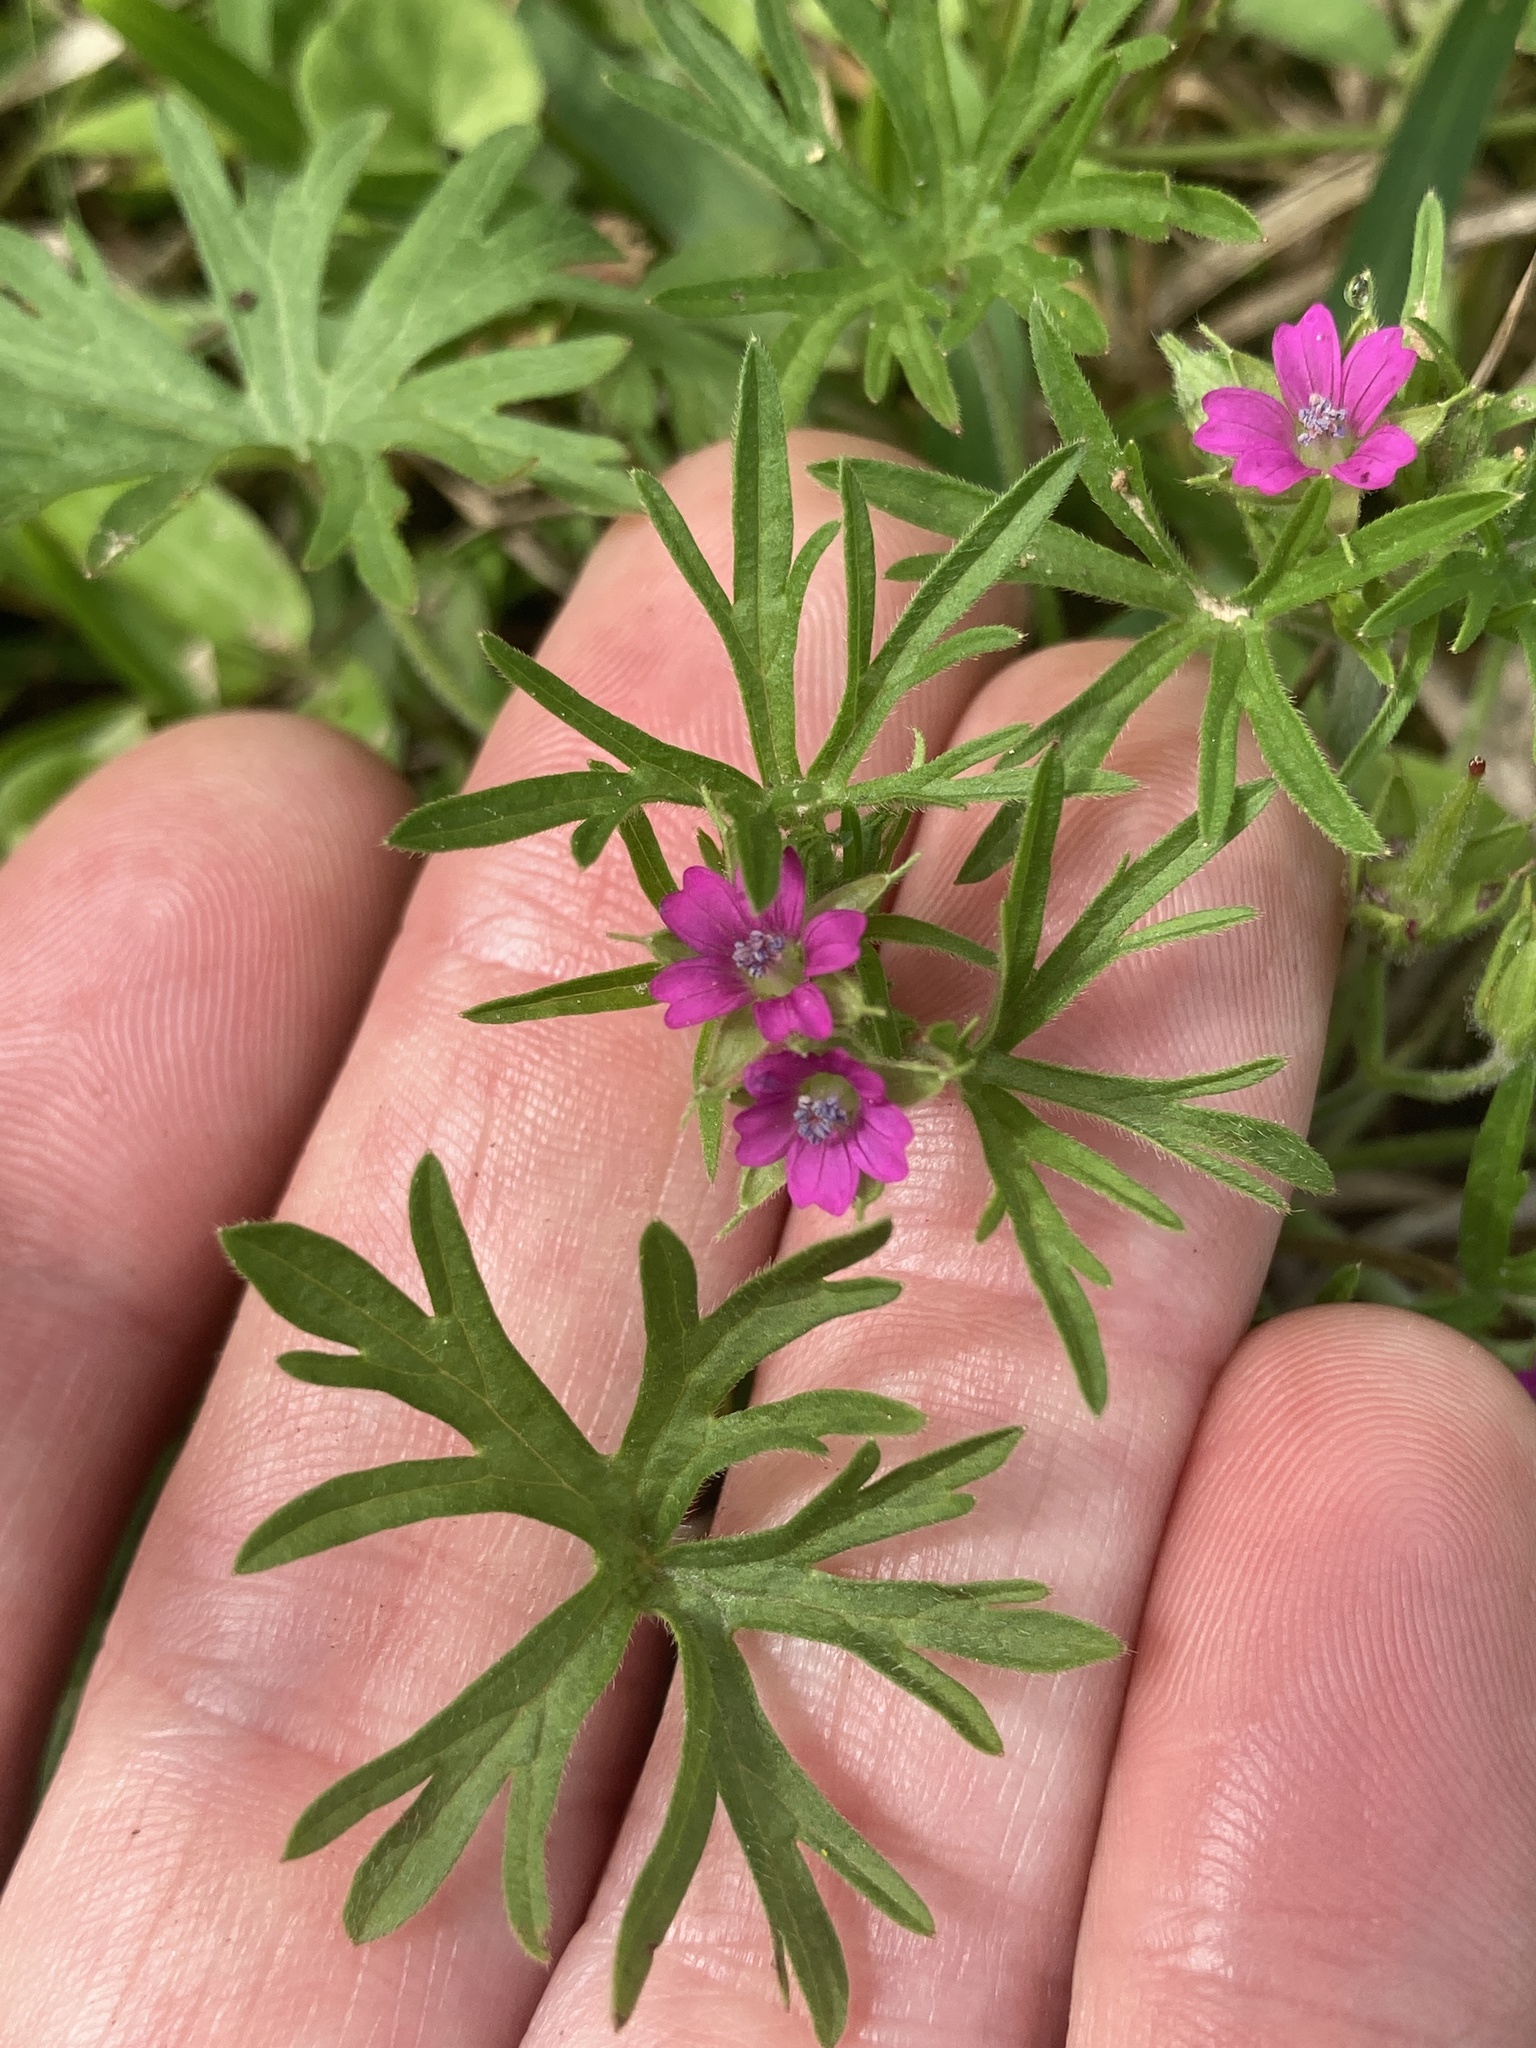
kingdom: Plantae
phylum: Tracheophyta
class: Magnoliopsida
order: Geraniales
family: Geraniaceae
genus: Geranium
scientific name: Geranium dissectum
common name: Cut-leaved crane's-bill
